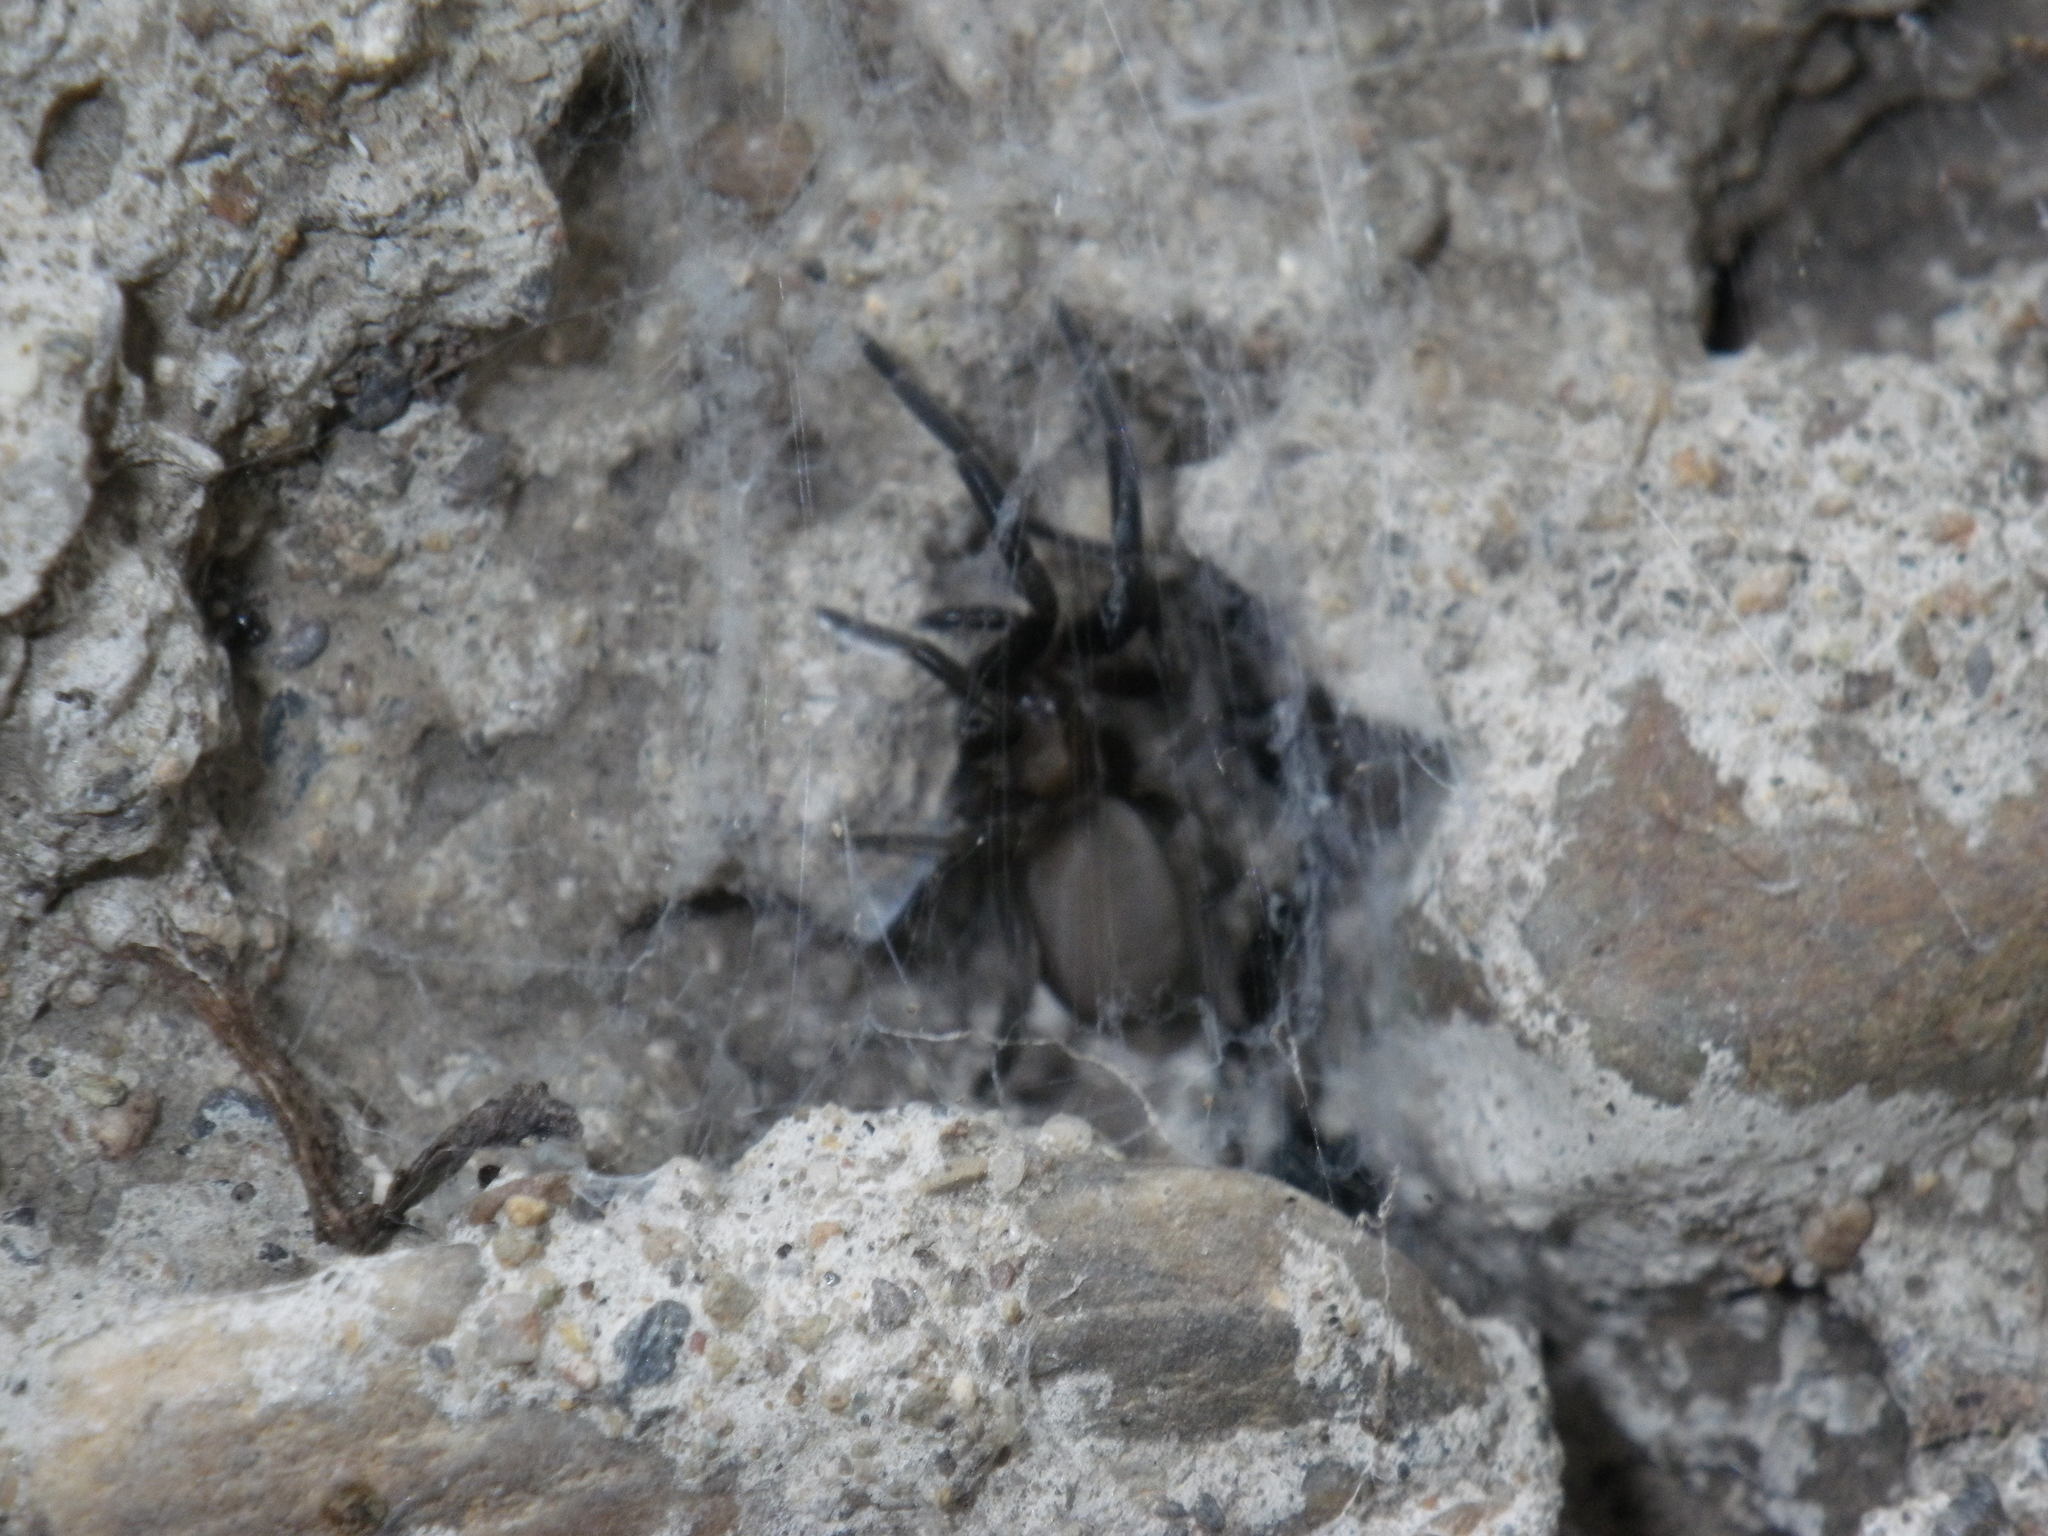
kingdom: Animalia
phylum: Arthropoda
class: Arachnida
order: Araneae
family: Filistatidae
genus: Kukulcania
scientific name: Kukulcania
